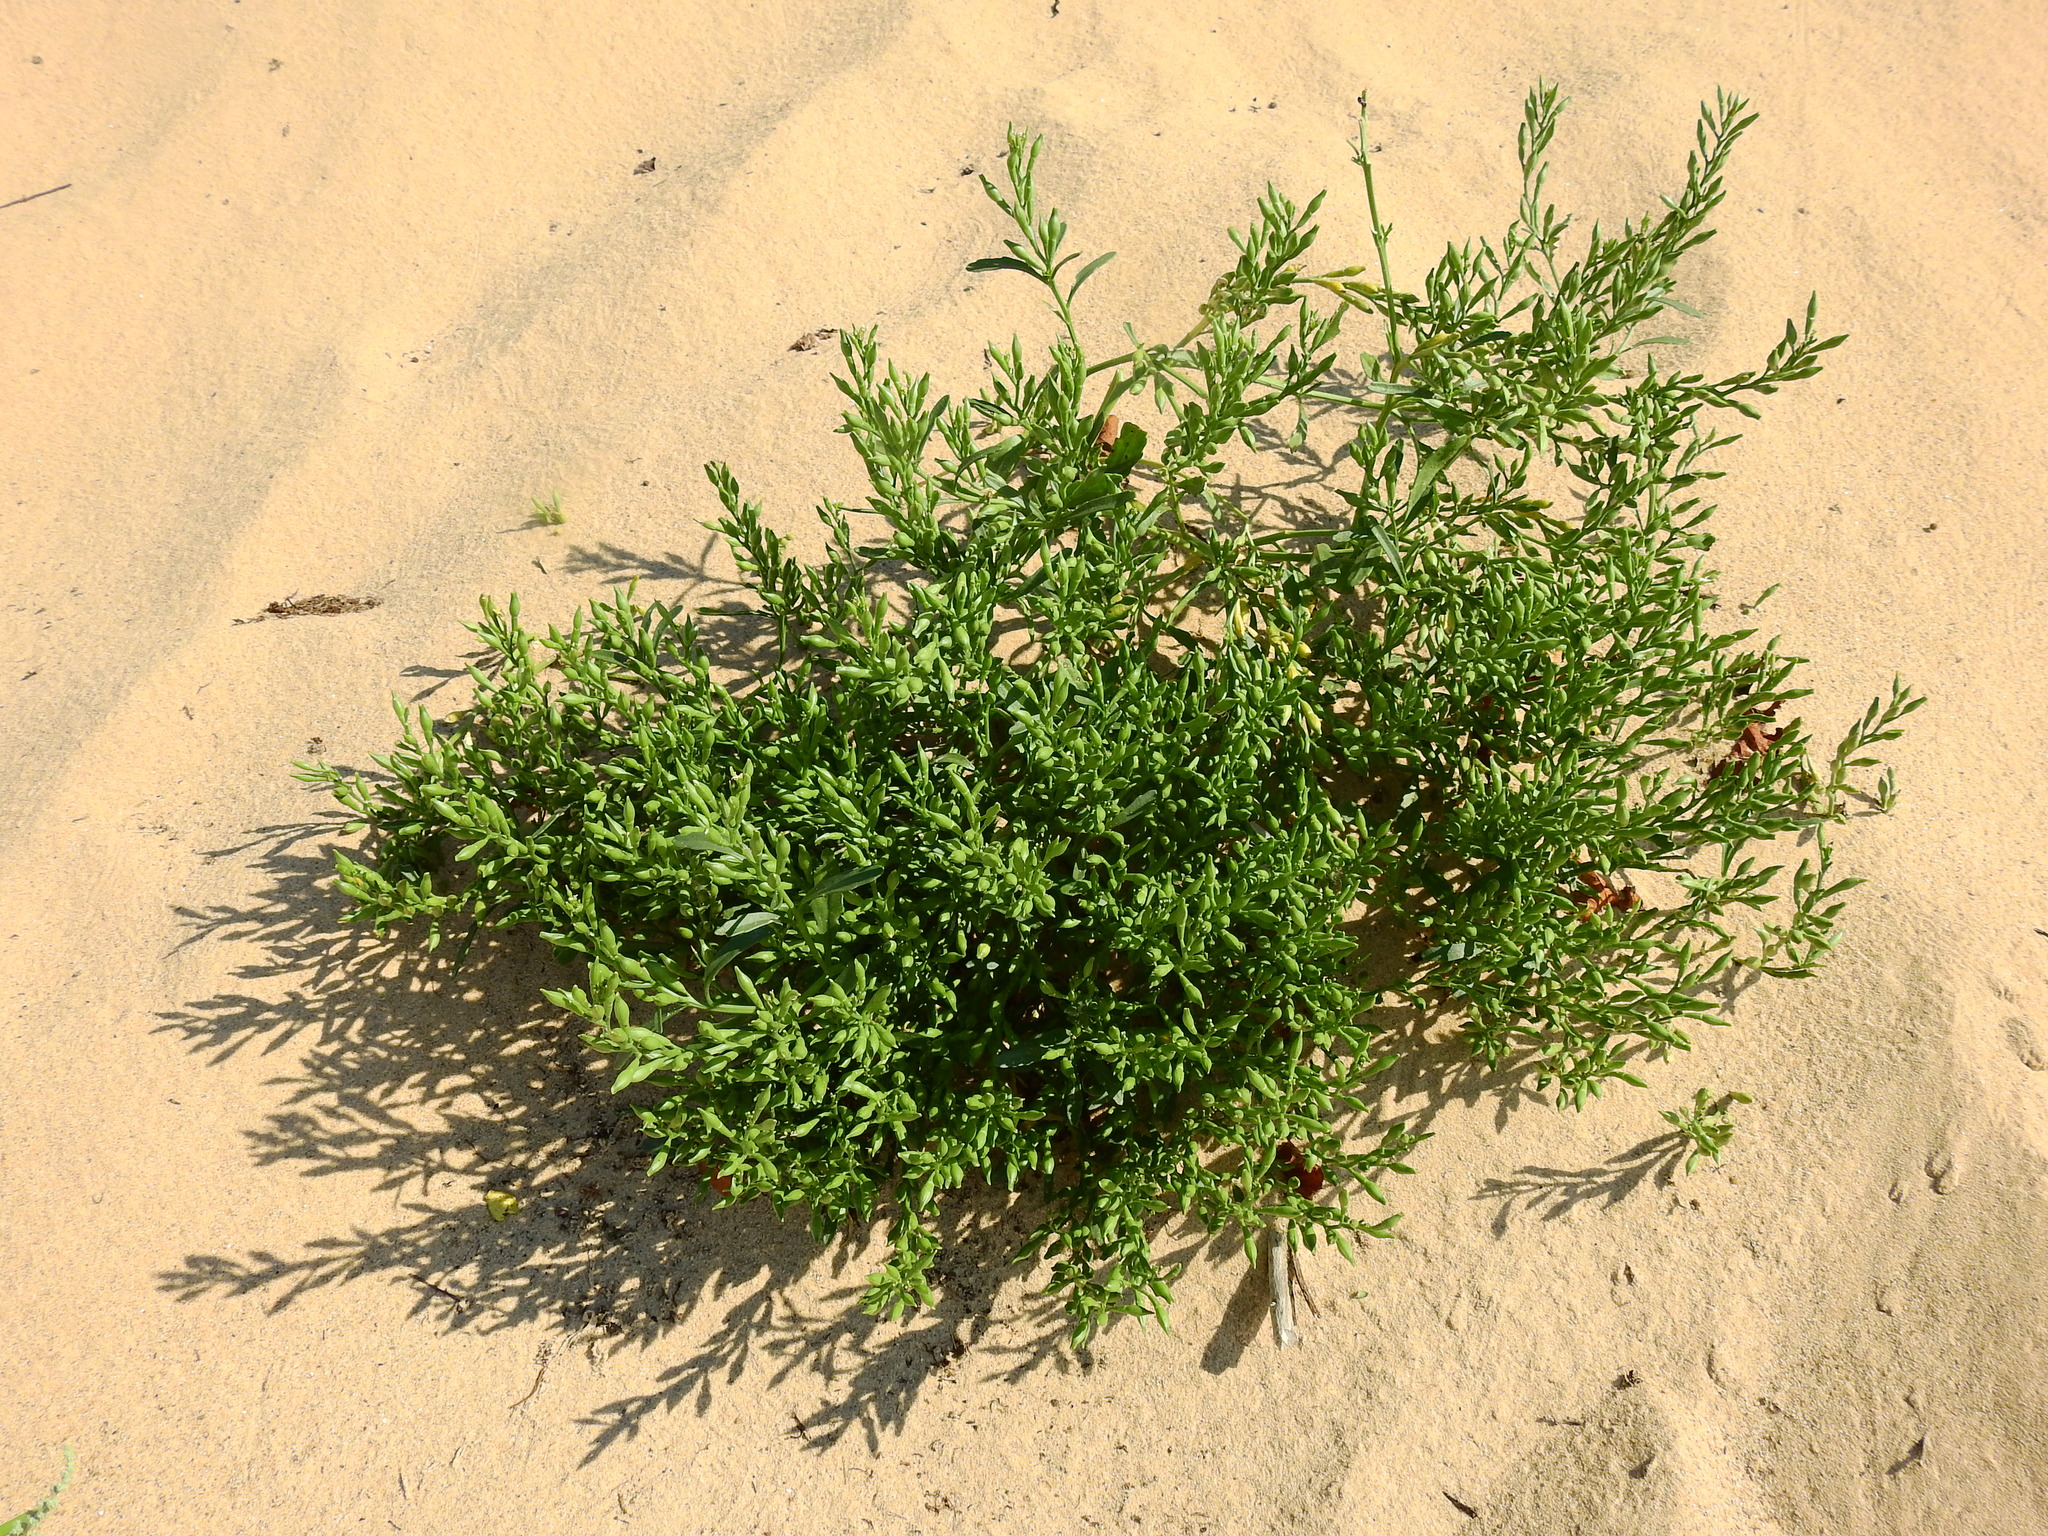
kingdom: Plantae
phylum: Tracheophyta
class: Magnoliopsida
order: Brassicales
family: Brassicaceae
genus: Cakile
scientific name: Cakile edentula
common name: American sea rocket
